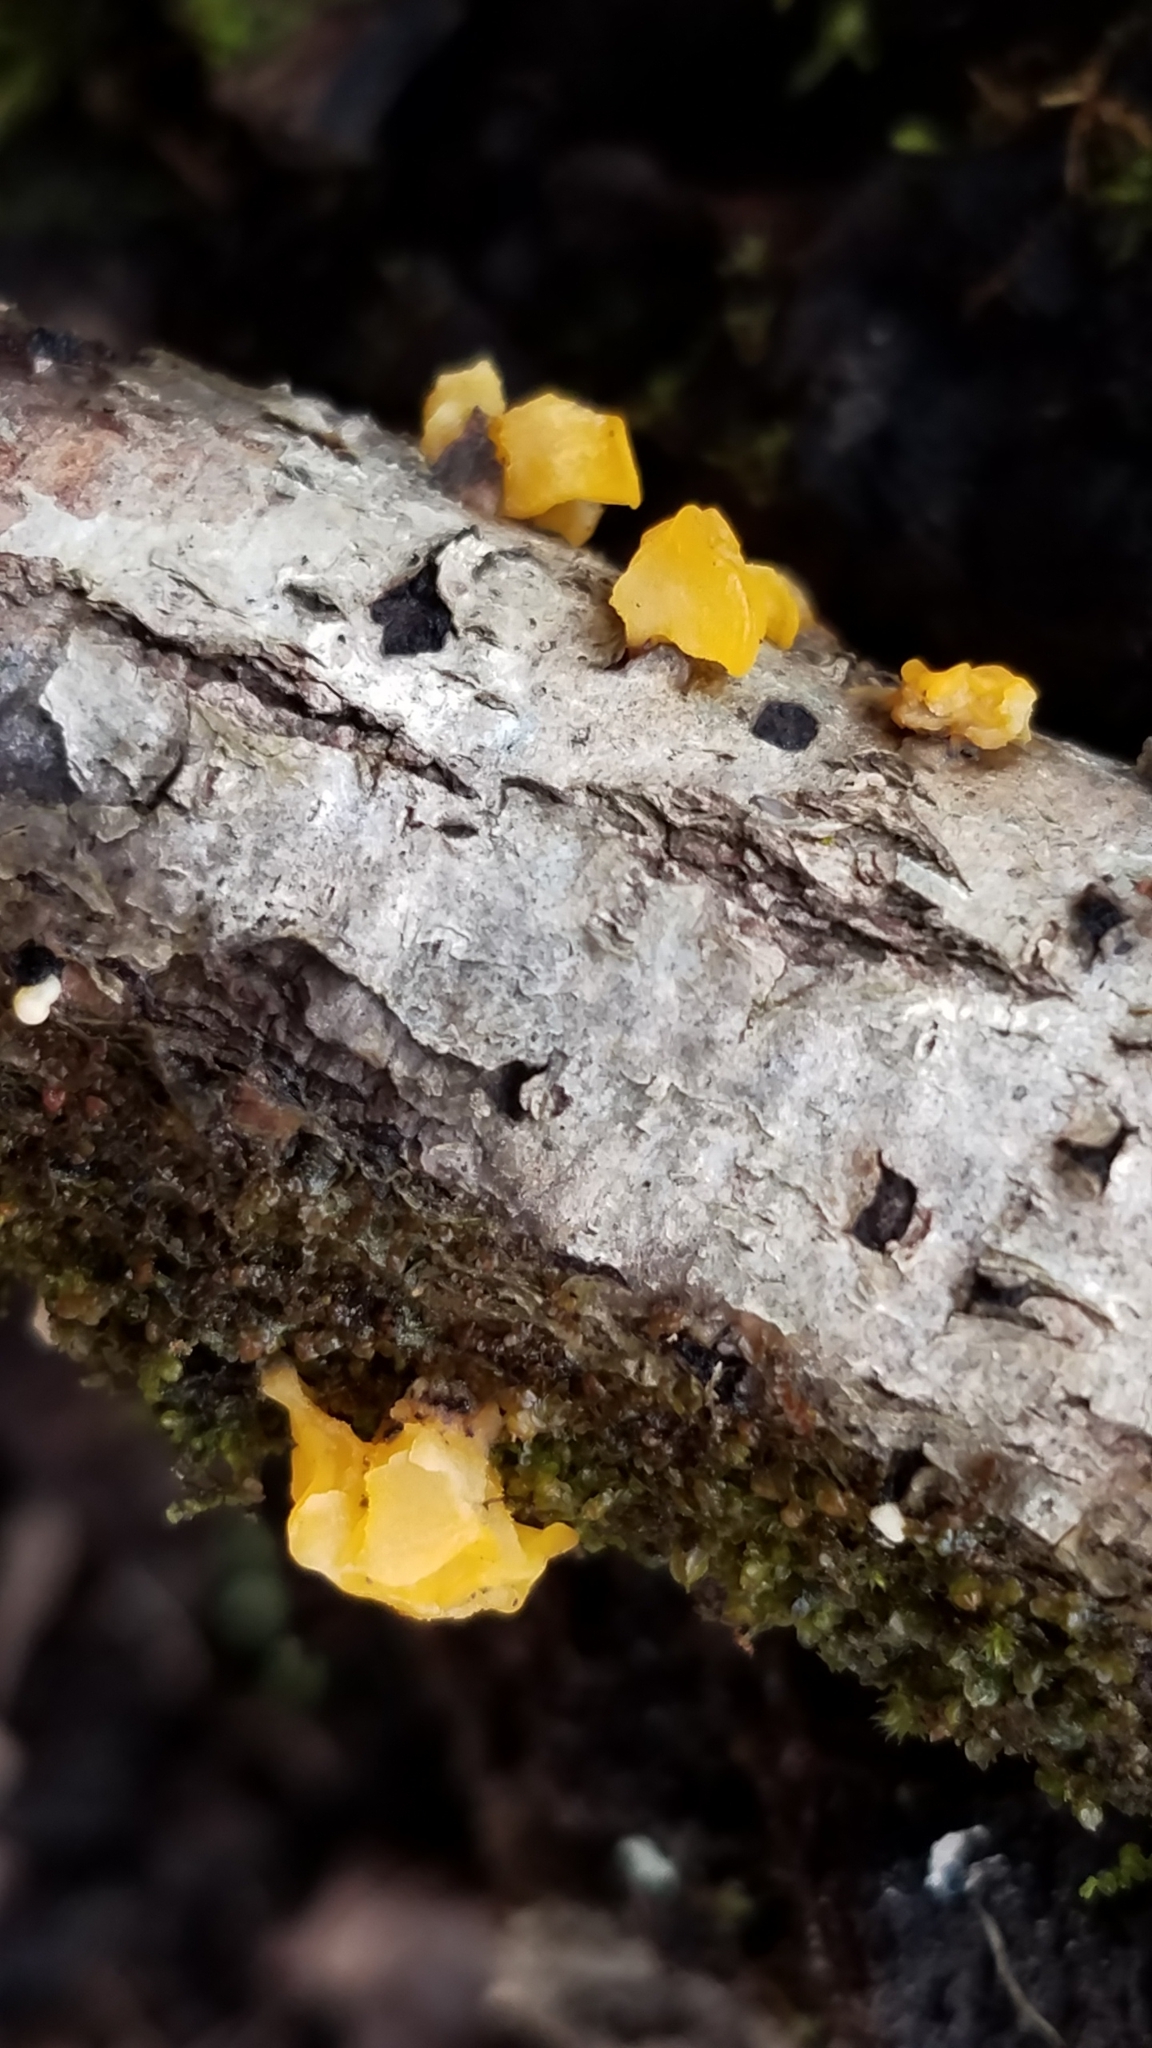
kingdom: Fungi
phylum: Basidiomycota
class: Tremellomycetes
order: Tremellales
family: Tremellaceae
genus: Tremella
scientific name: Tremella mesenterica
